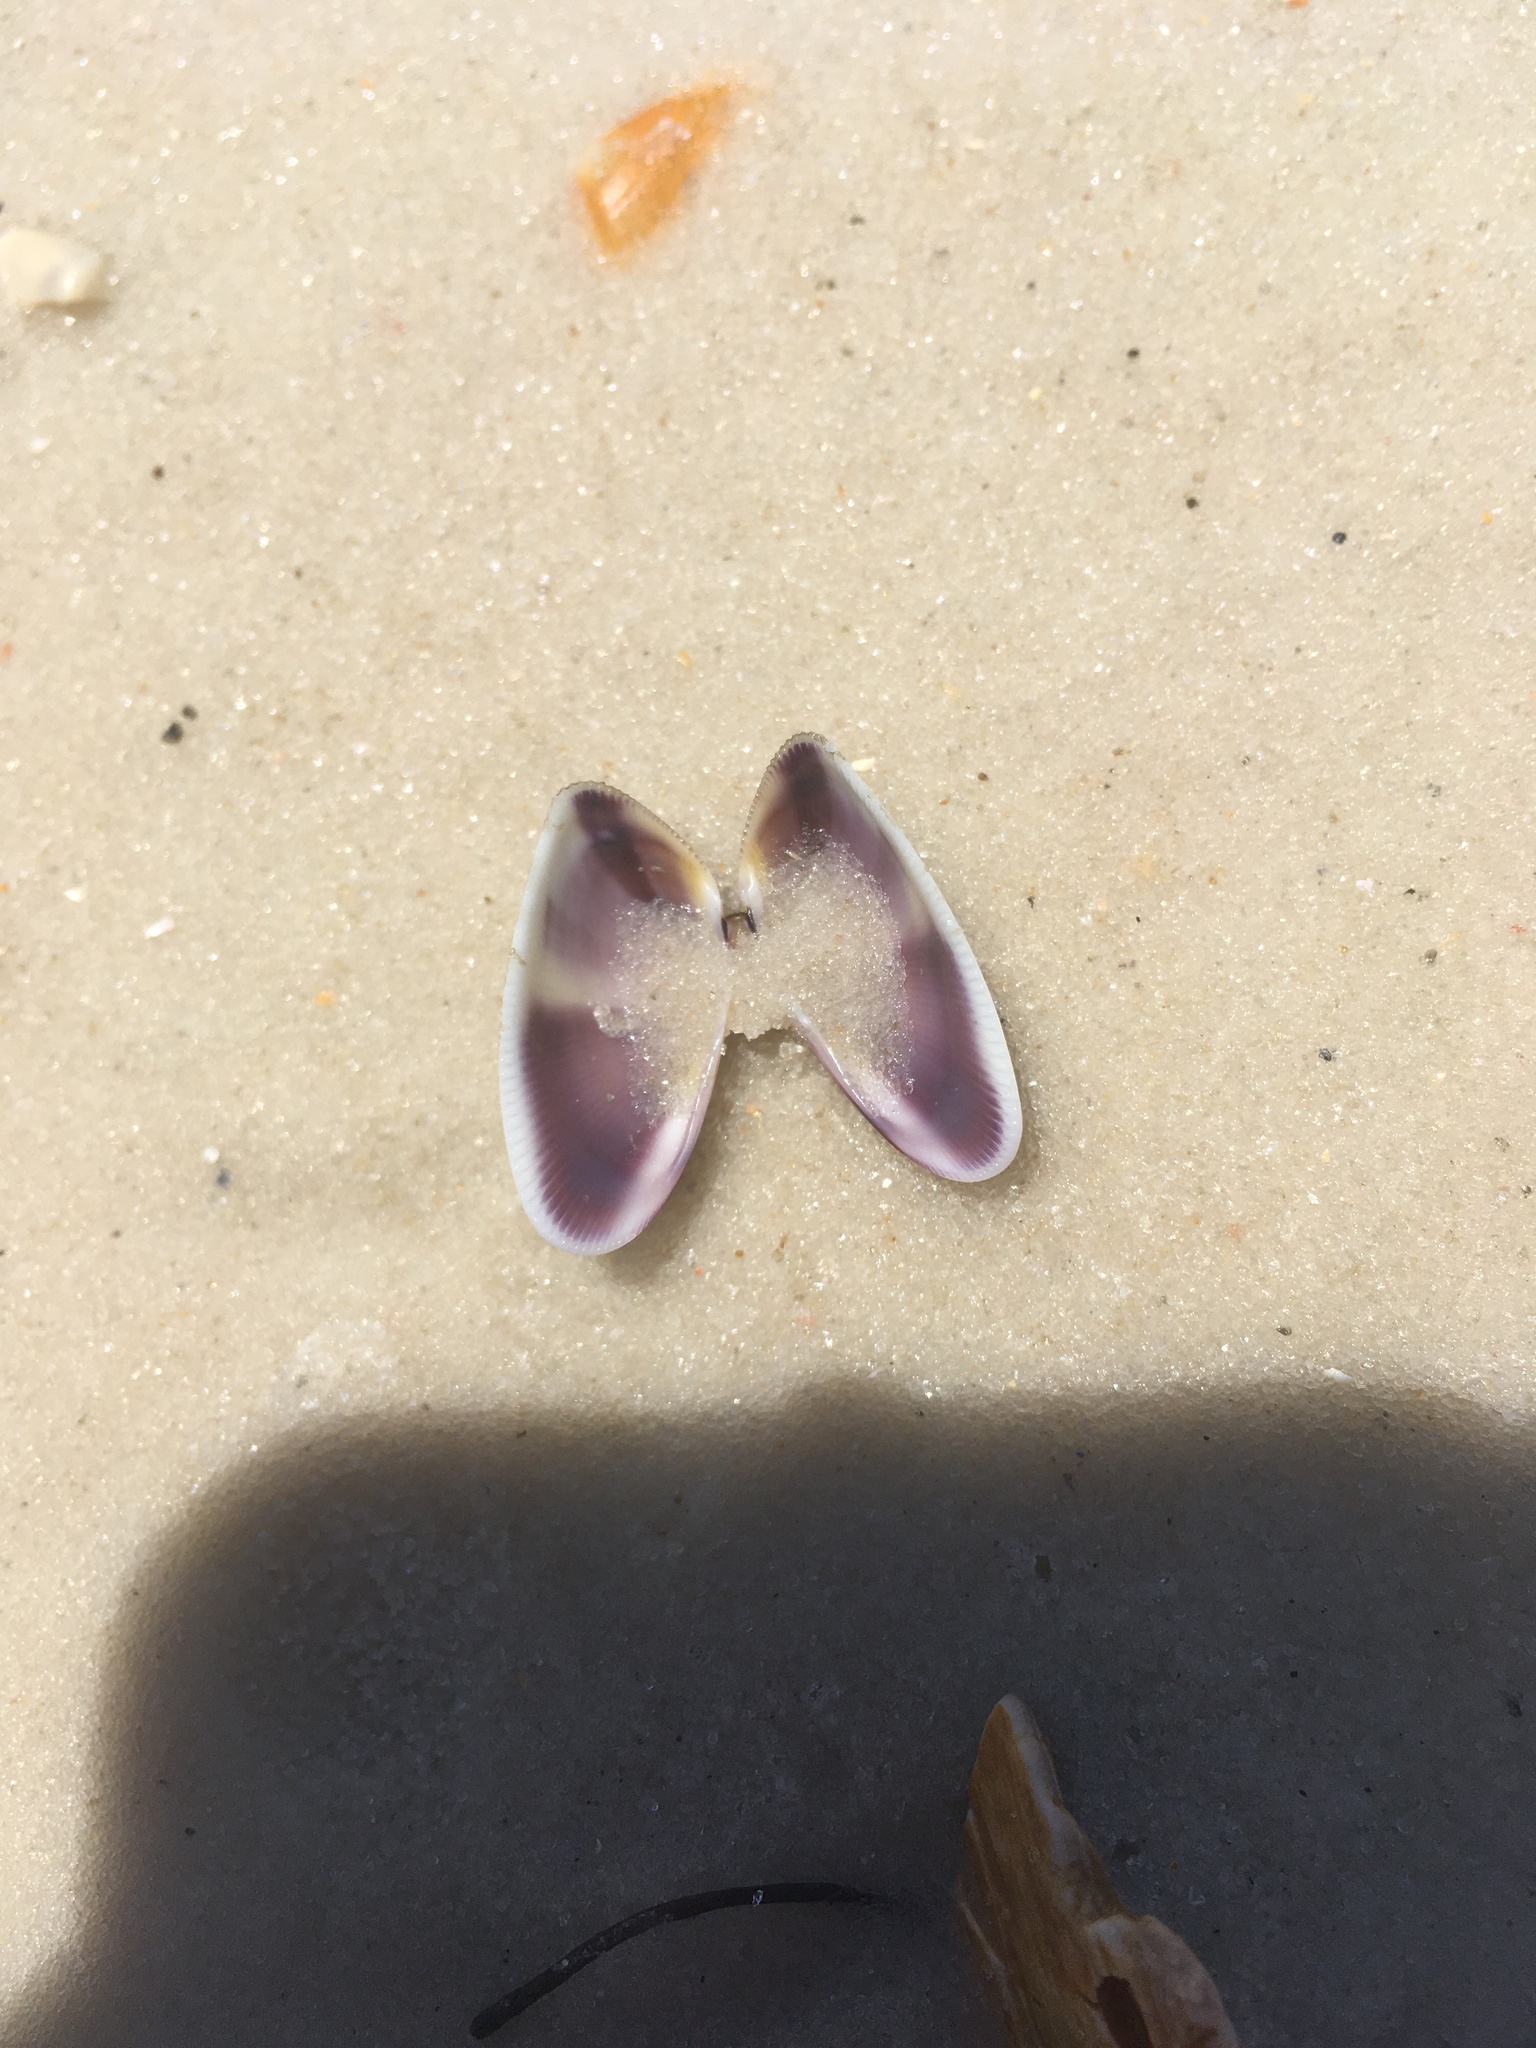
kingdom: Animalia
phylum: Mollusca
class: Bivalvia
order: Cardiida
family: Donacidae
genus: Donax
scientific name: Donax variabilis
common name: Butterfly shell
